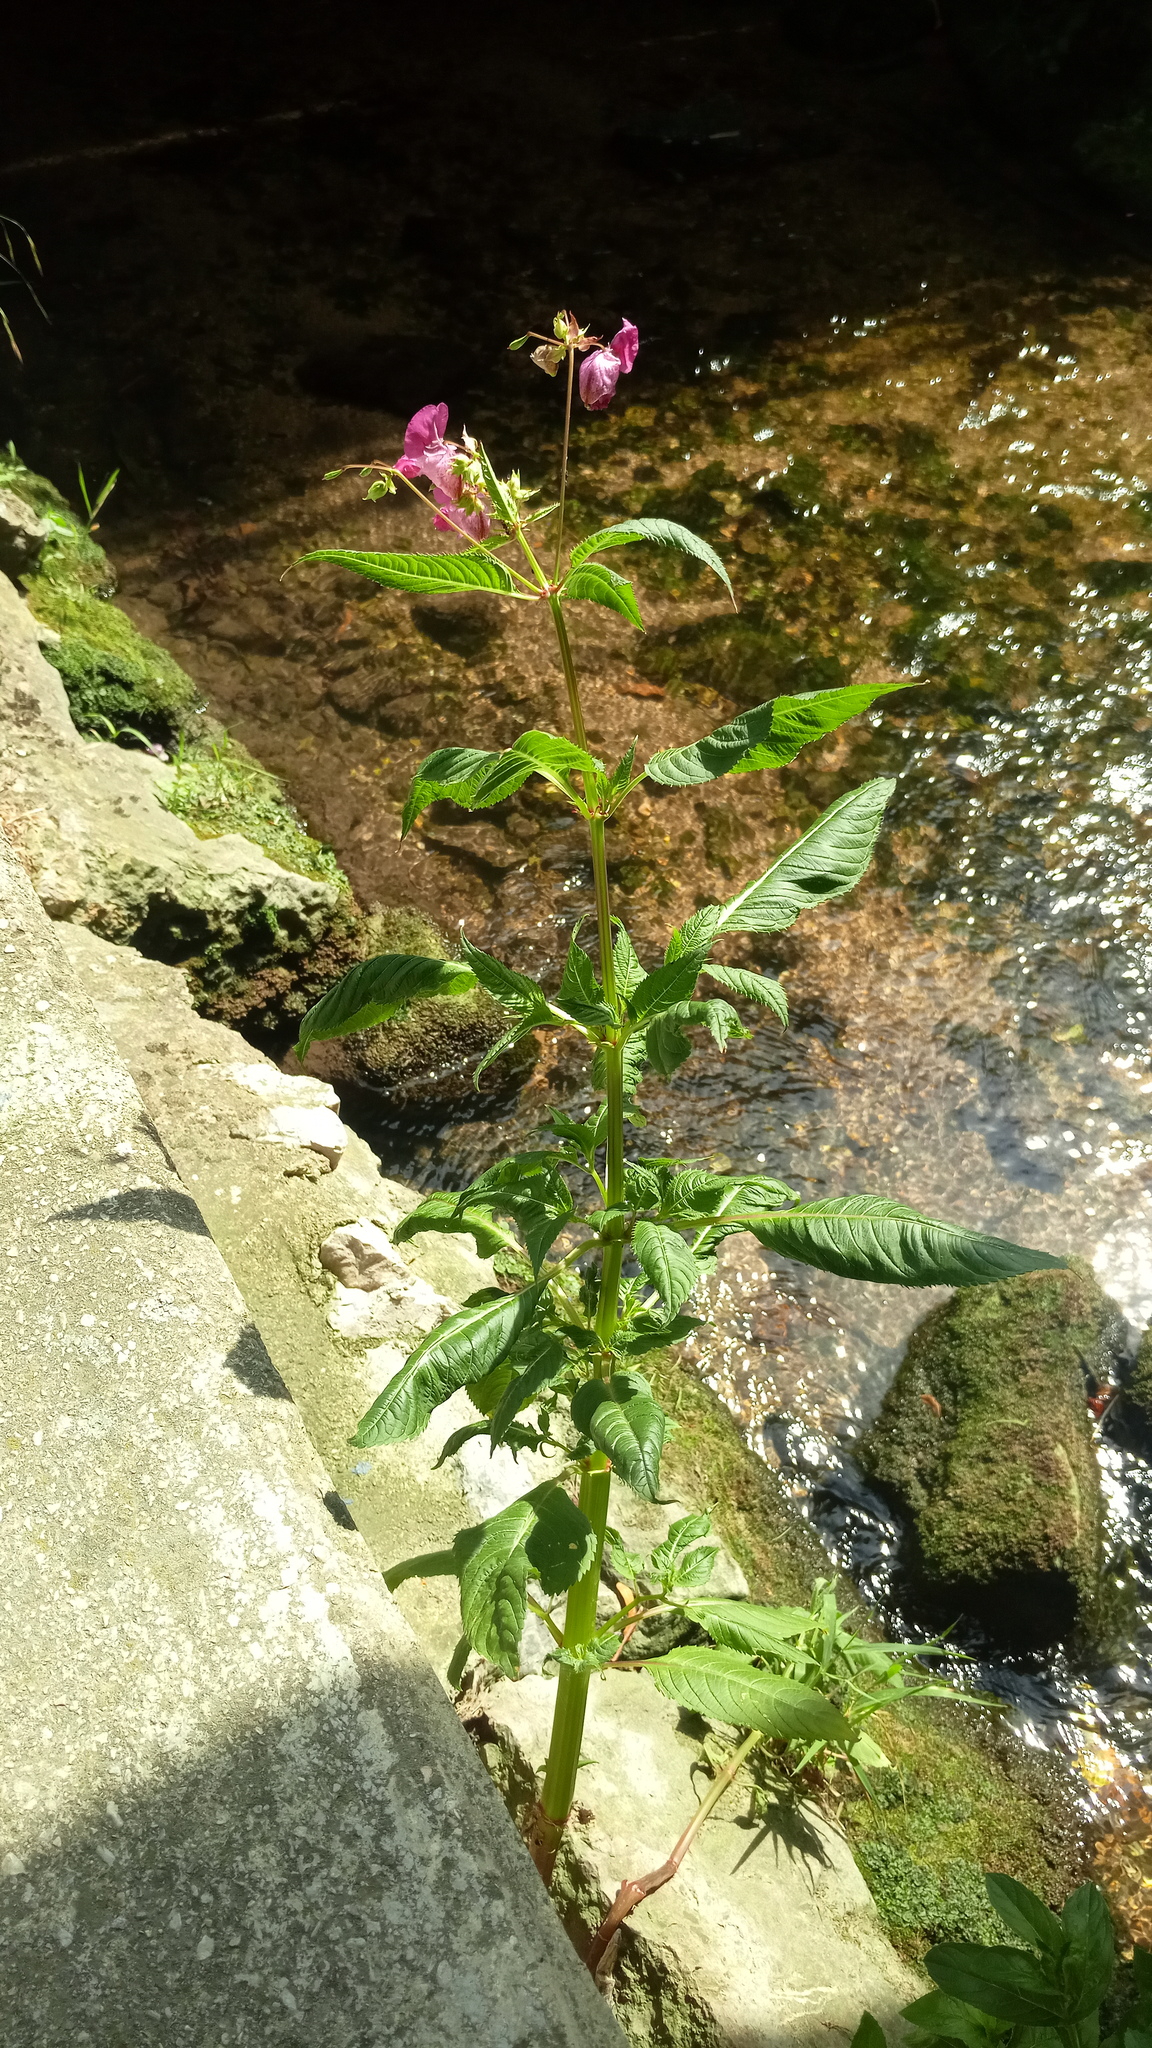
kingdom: Plantae
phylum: Tracheophyta
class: Magnoliopsida
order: Ericales
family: Balsaminaceae
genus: Impatiens
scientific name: Impatiens glandulifera
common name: Himalayan balsam
